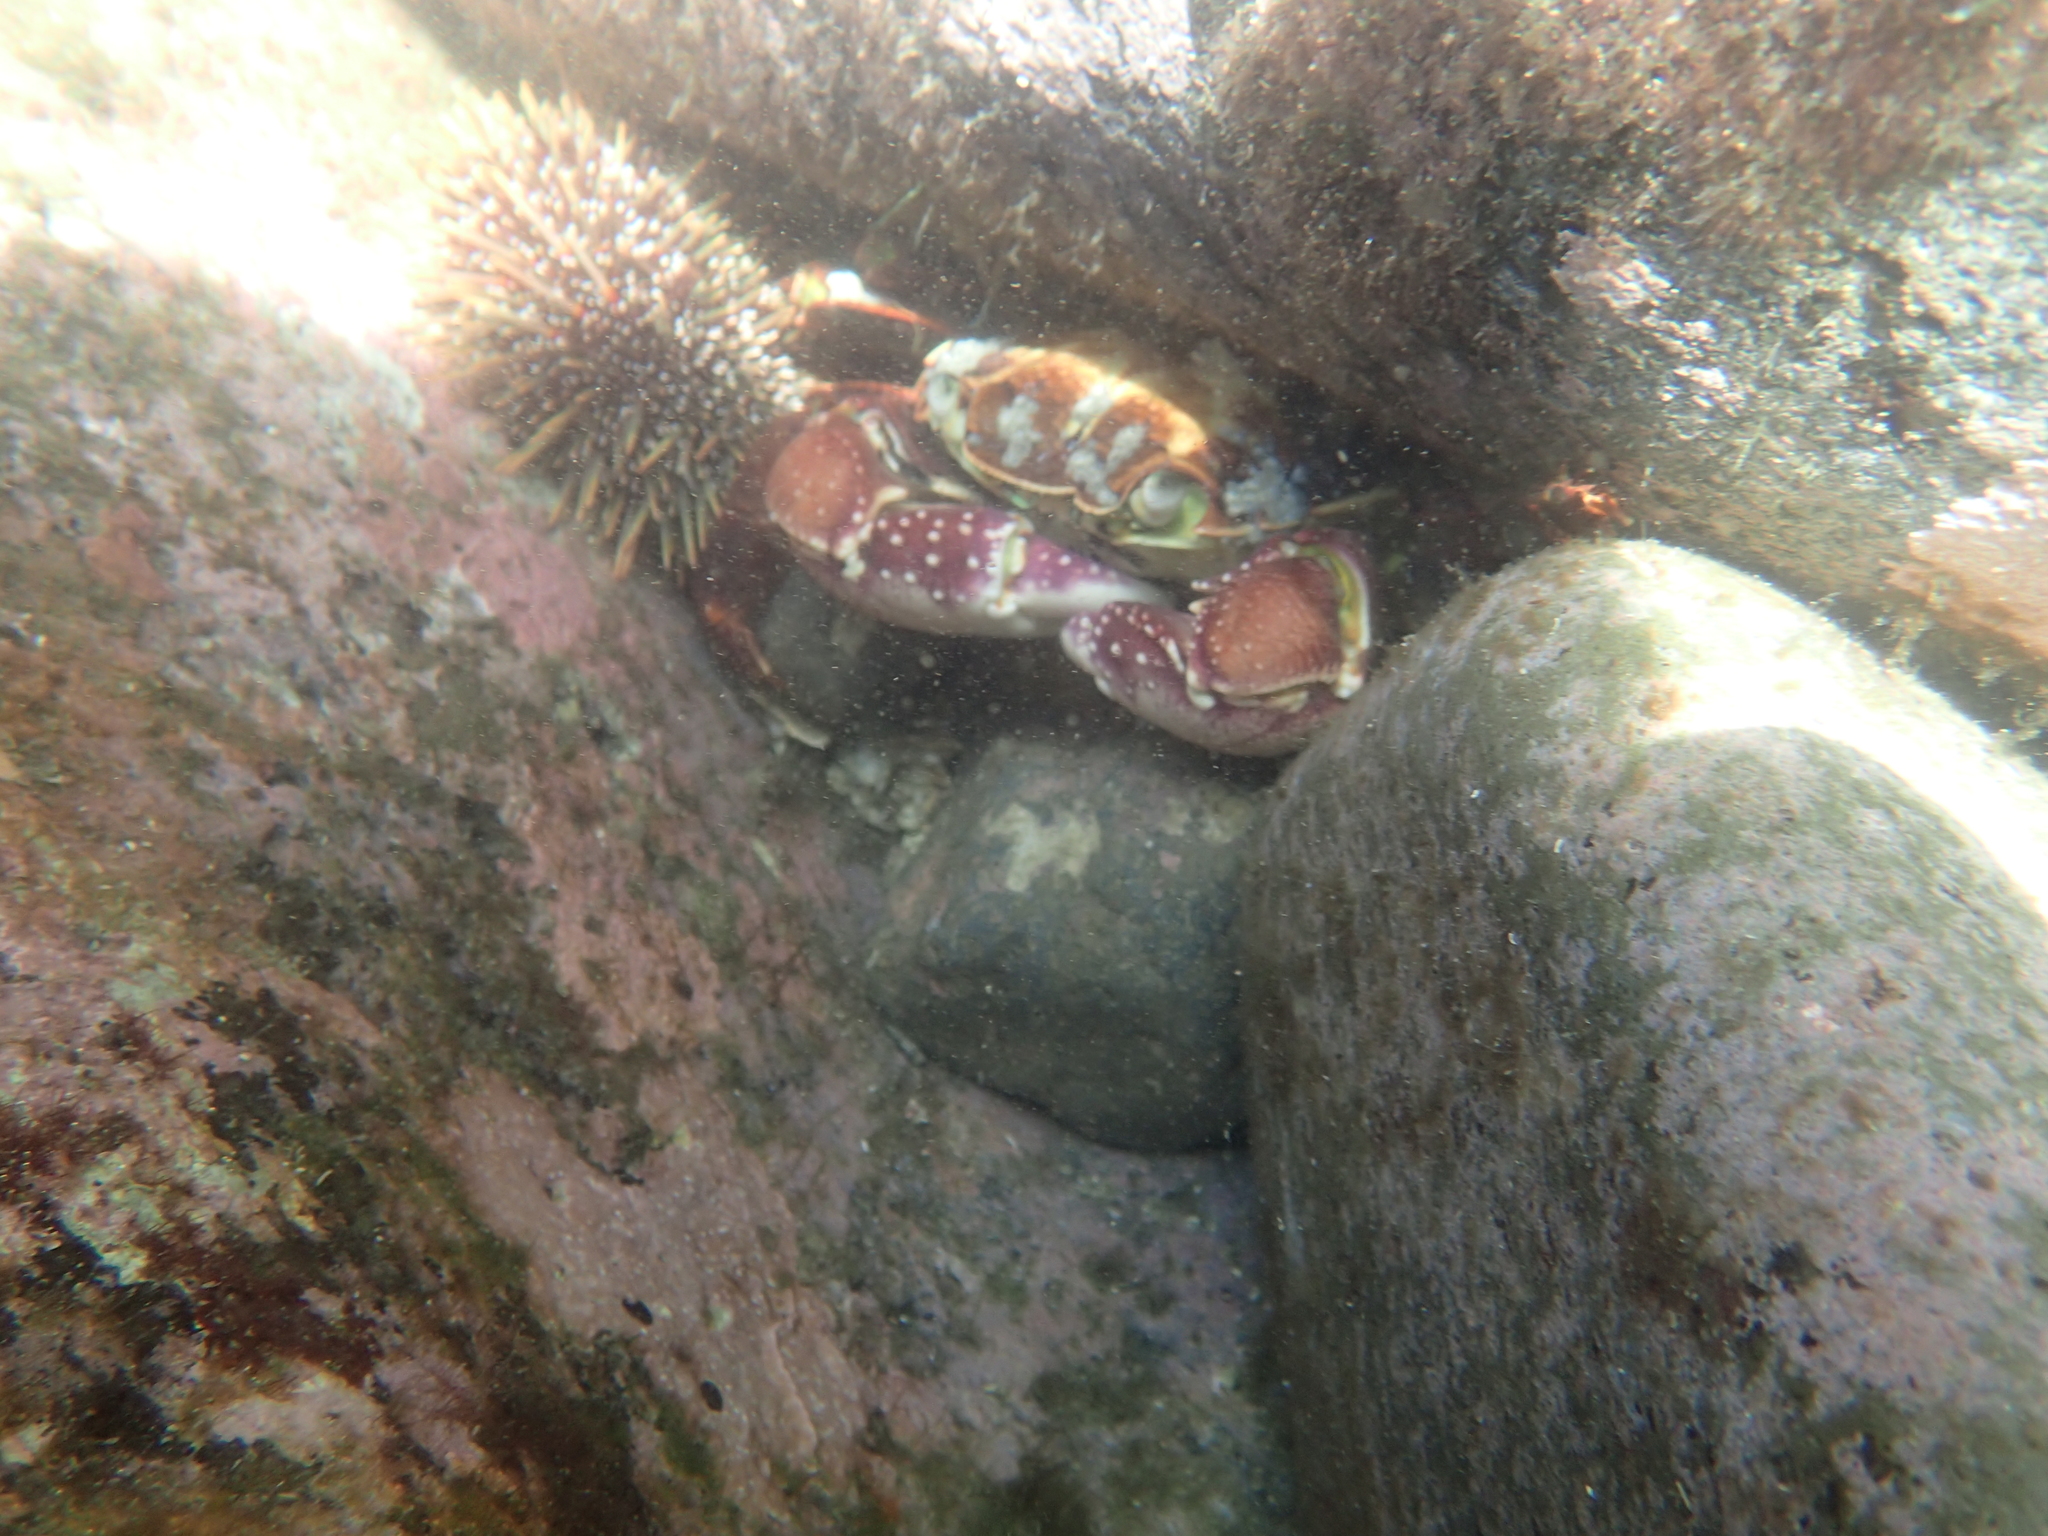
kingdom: Animalia
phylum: Arthropoda
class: Malacostraca
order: Decapoda
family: Grapsidae
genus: Leptograpsus
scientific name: Leptograpsus variegatus
